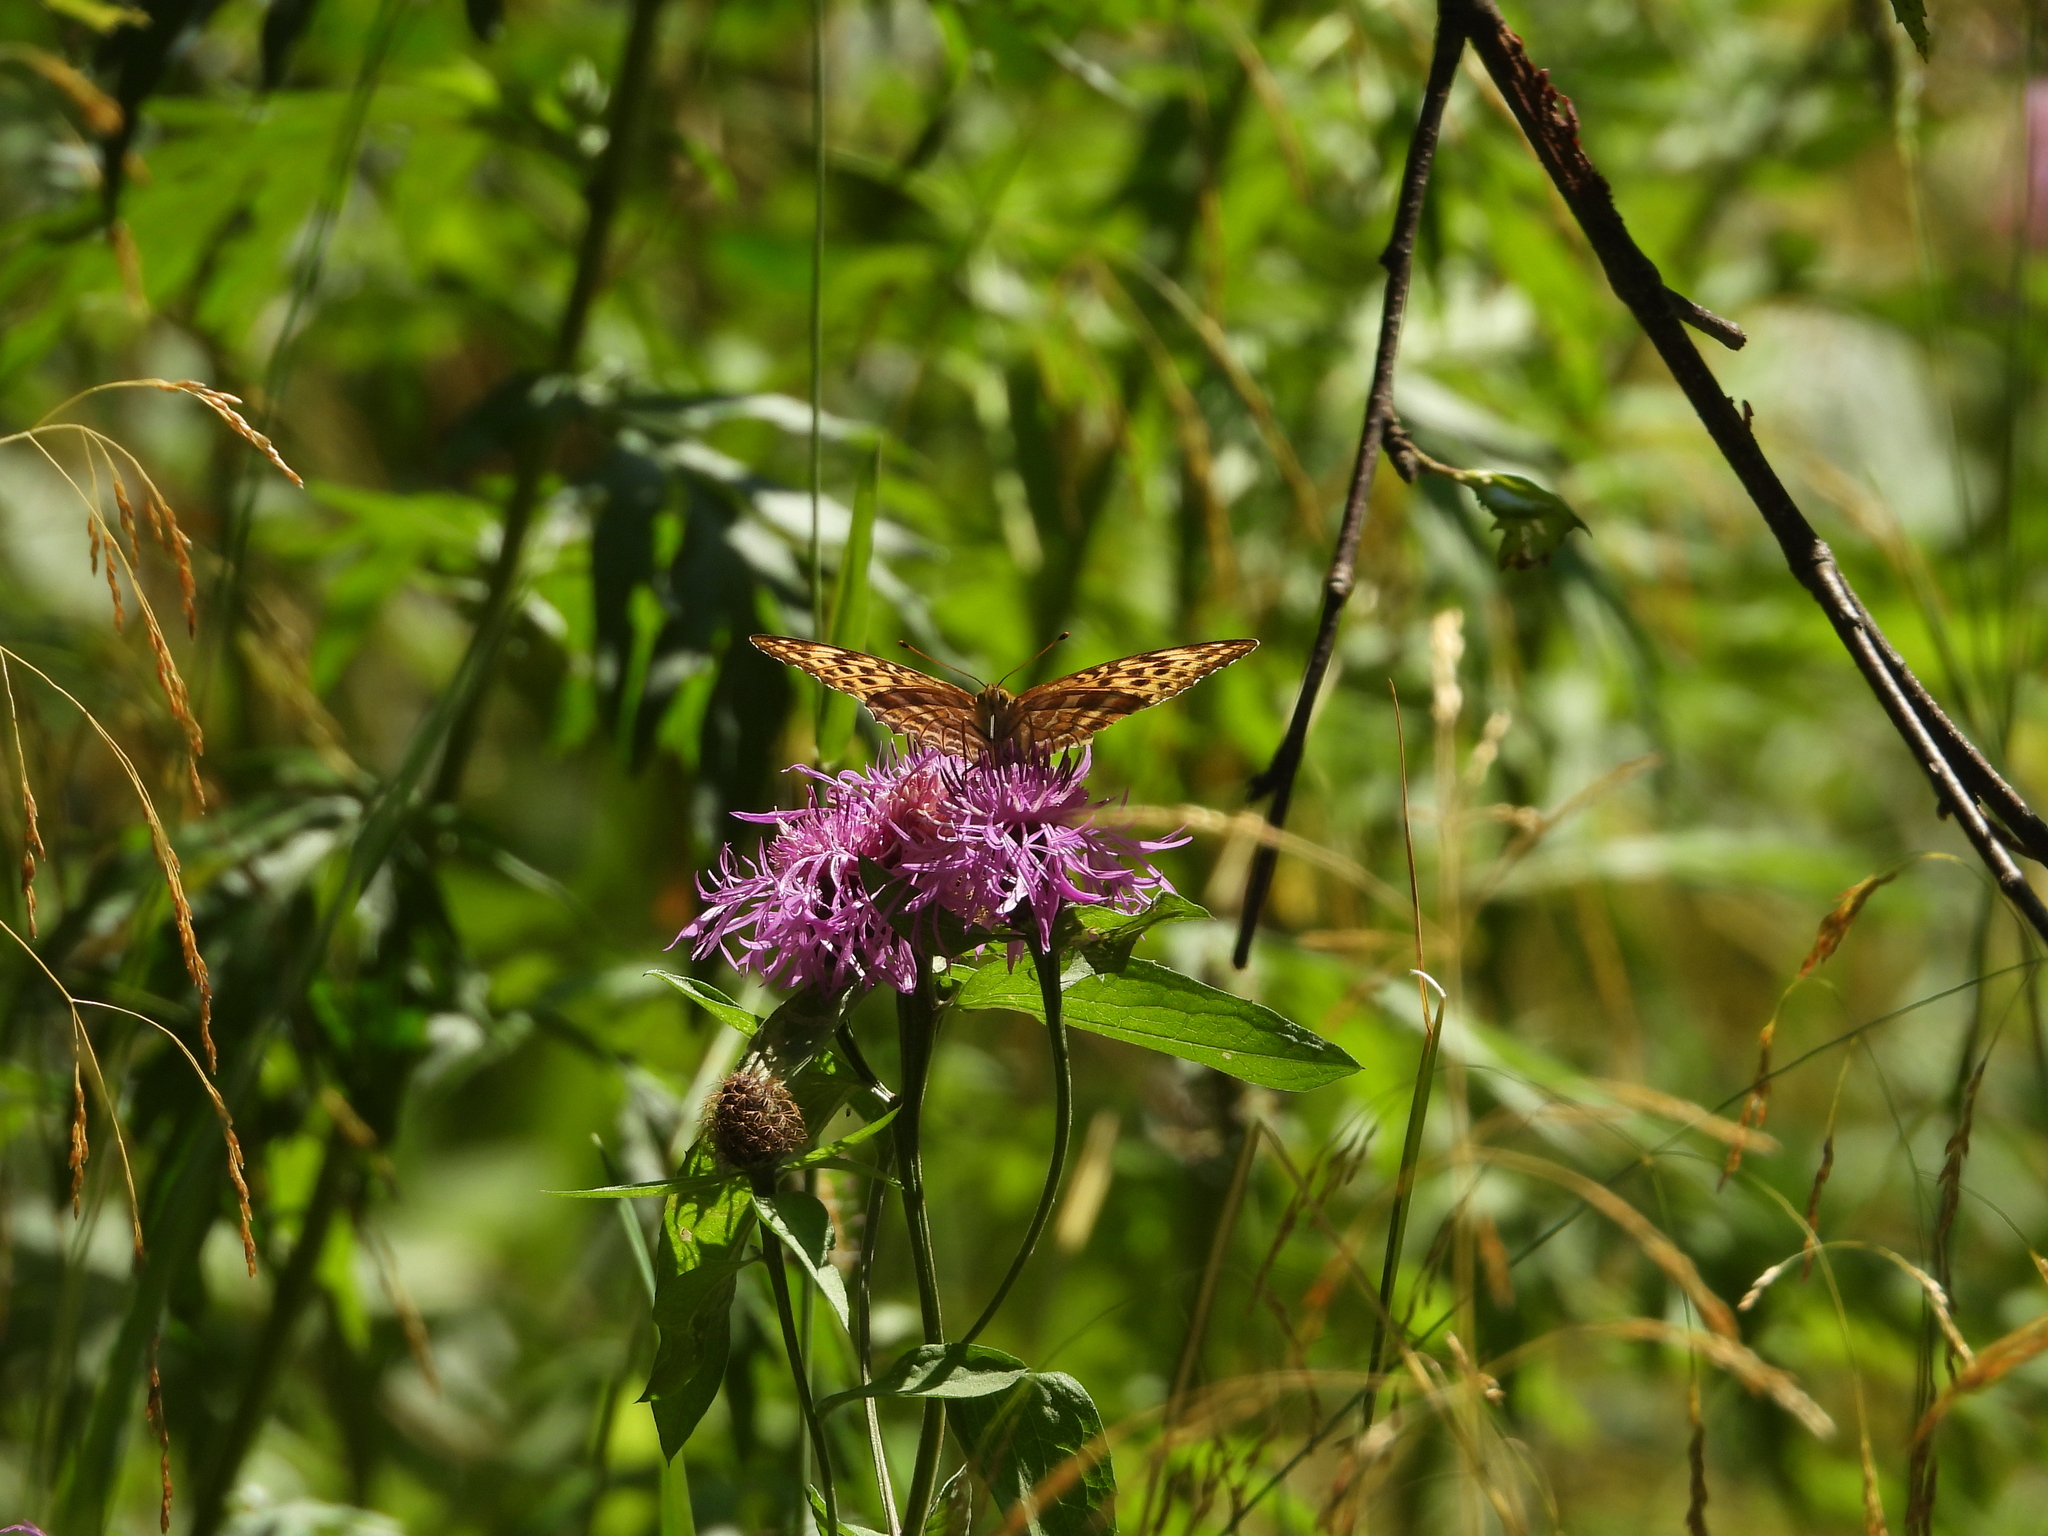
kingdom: Animalia
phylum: Arthropoda
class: Insecta
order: Lepidoptera
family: Nymphalidae
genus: Argynnis
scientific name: Argynnis paphia
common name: Silver-washed fritillary
